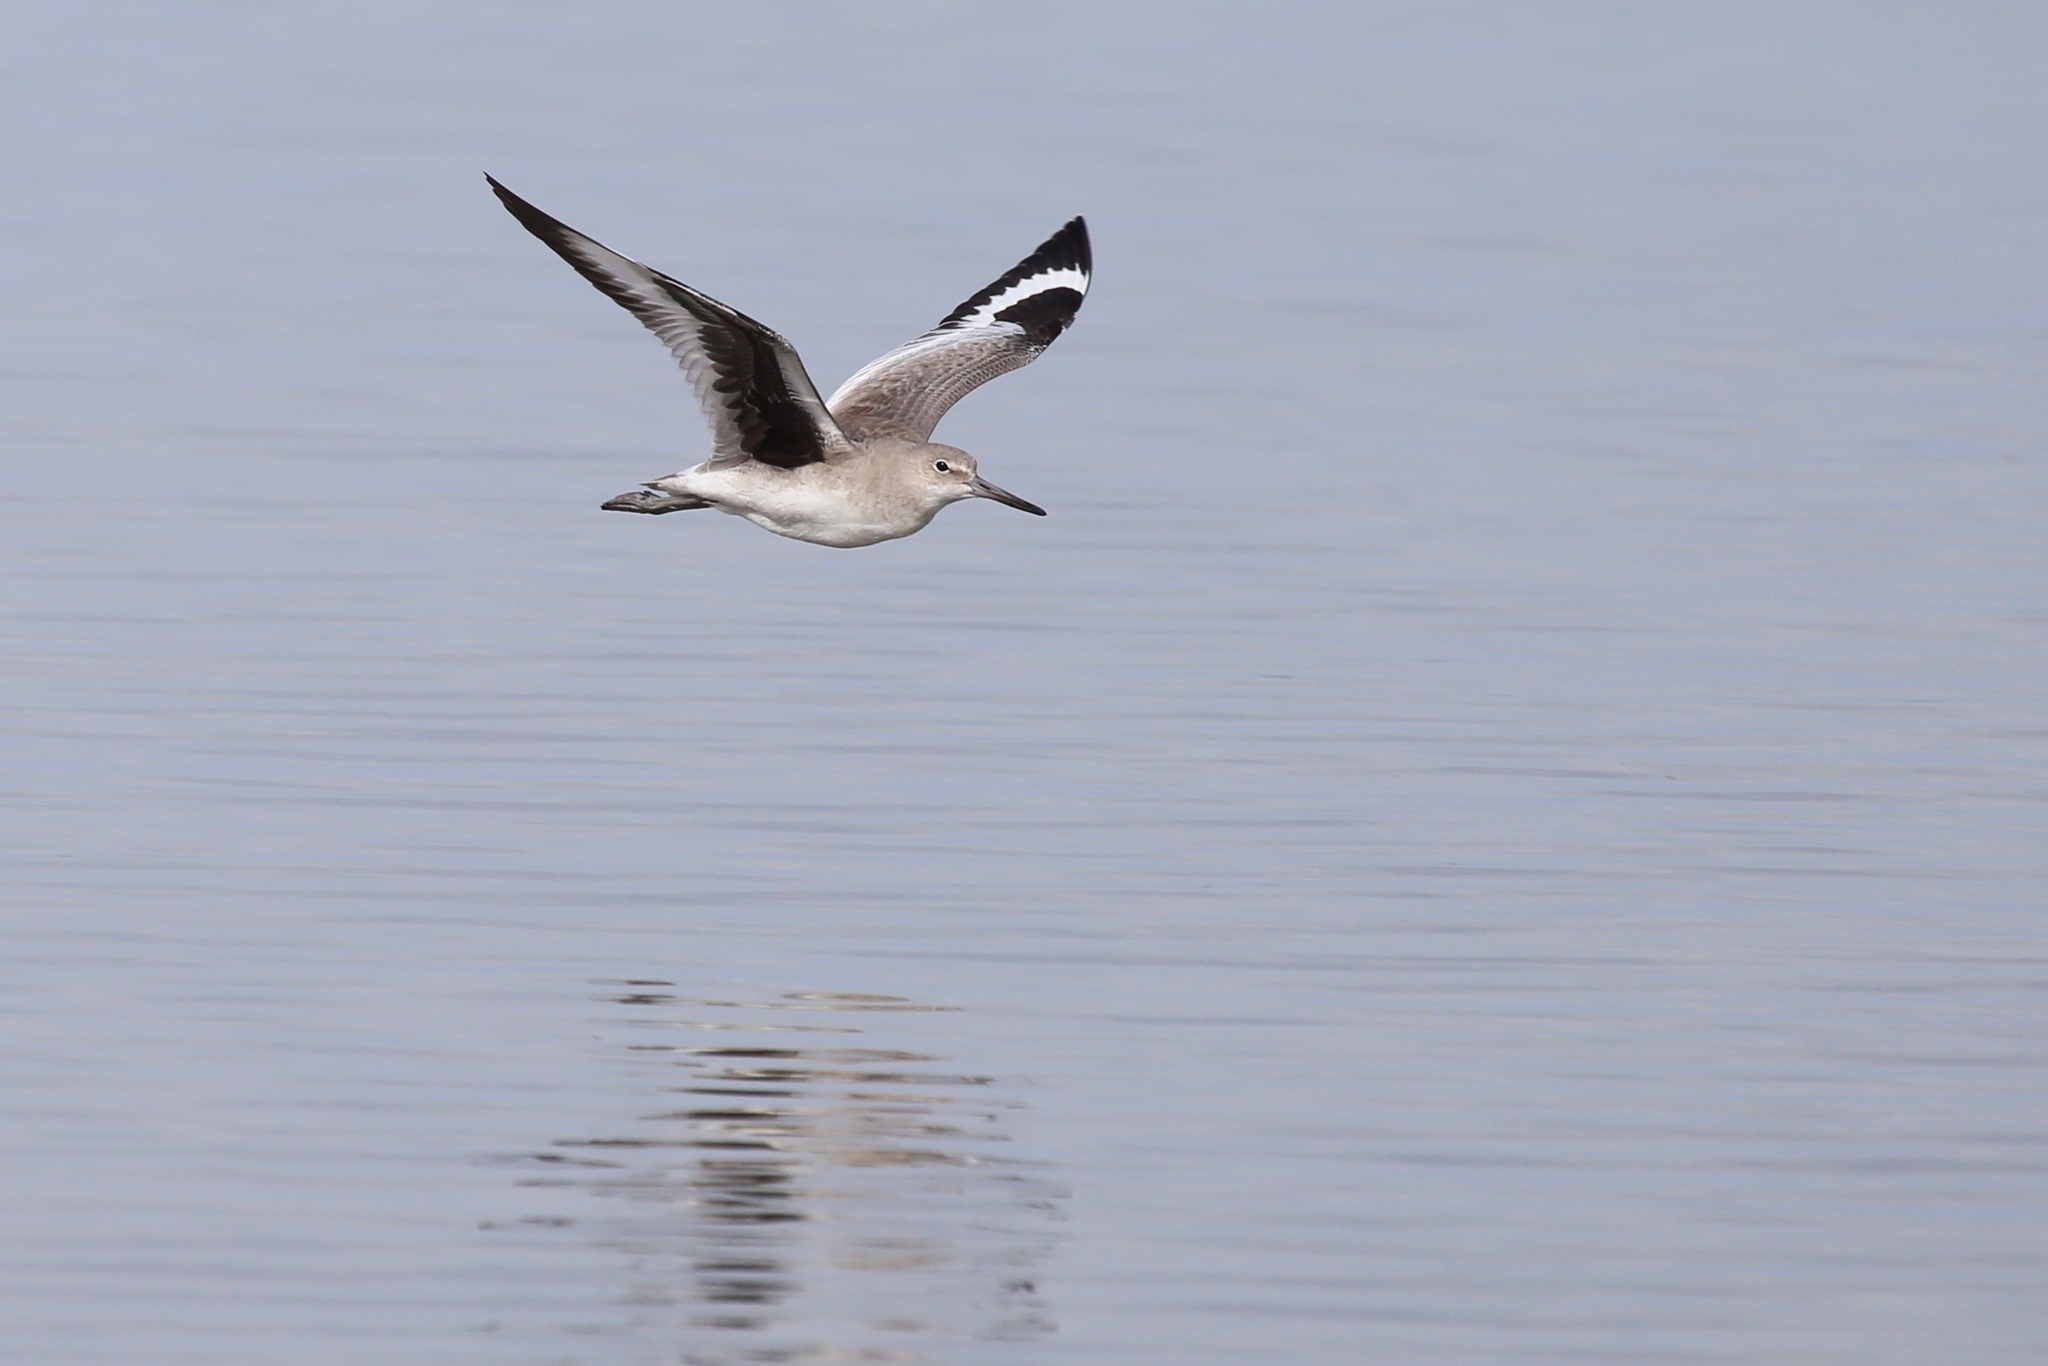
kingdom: Animalia
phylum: Chordata
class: Aves
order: Charadriiformes
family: Scolopacidae
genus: Tringa
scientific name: Tringa semipalmata
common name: Willet
